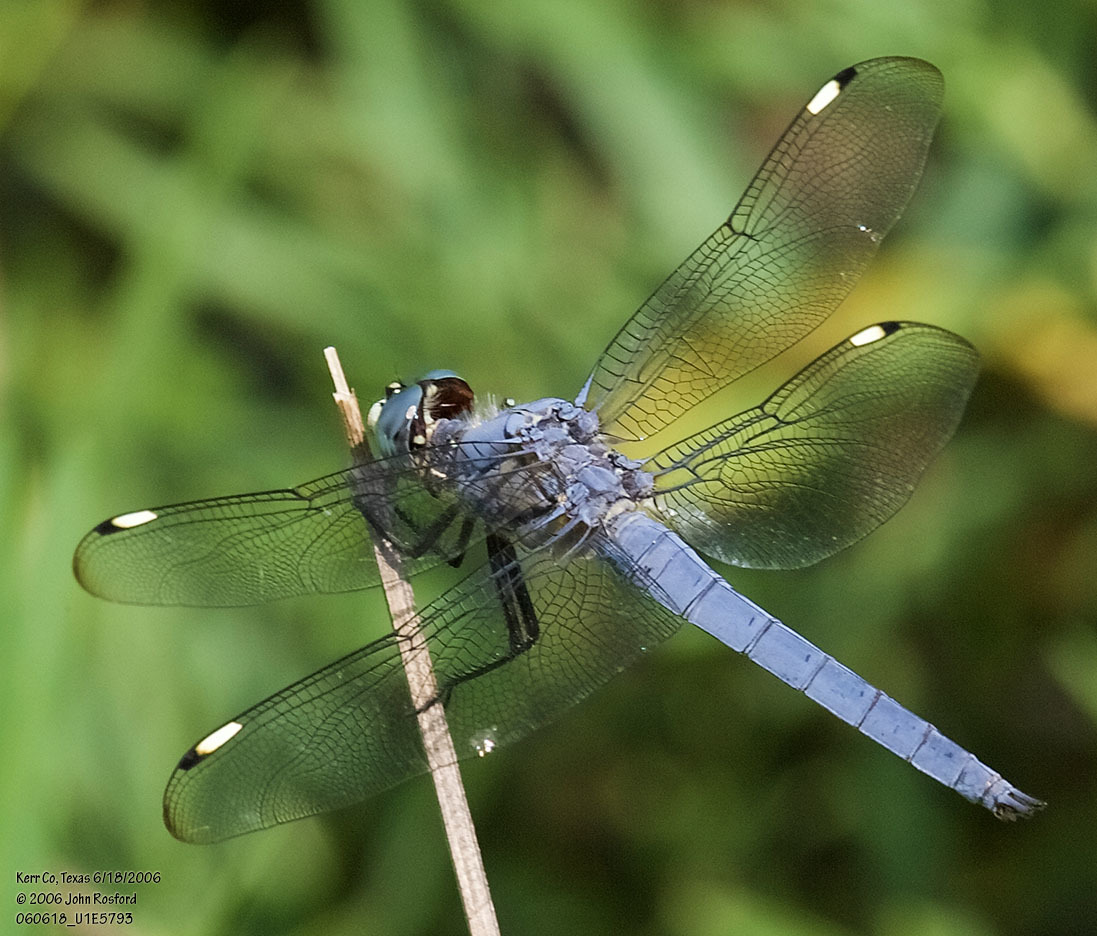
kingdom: Animalia
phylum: Arthropoda
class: Insecta
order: Odonata
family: Libellulidae
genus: Libellula
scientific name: Libellula comanche
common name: Comanche skimmer
